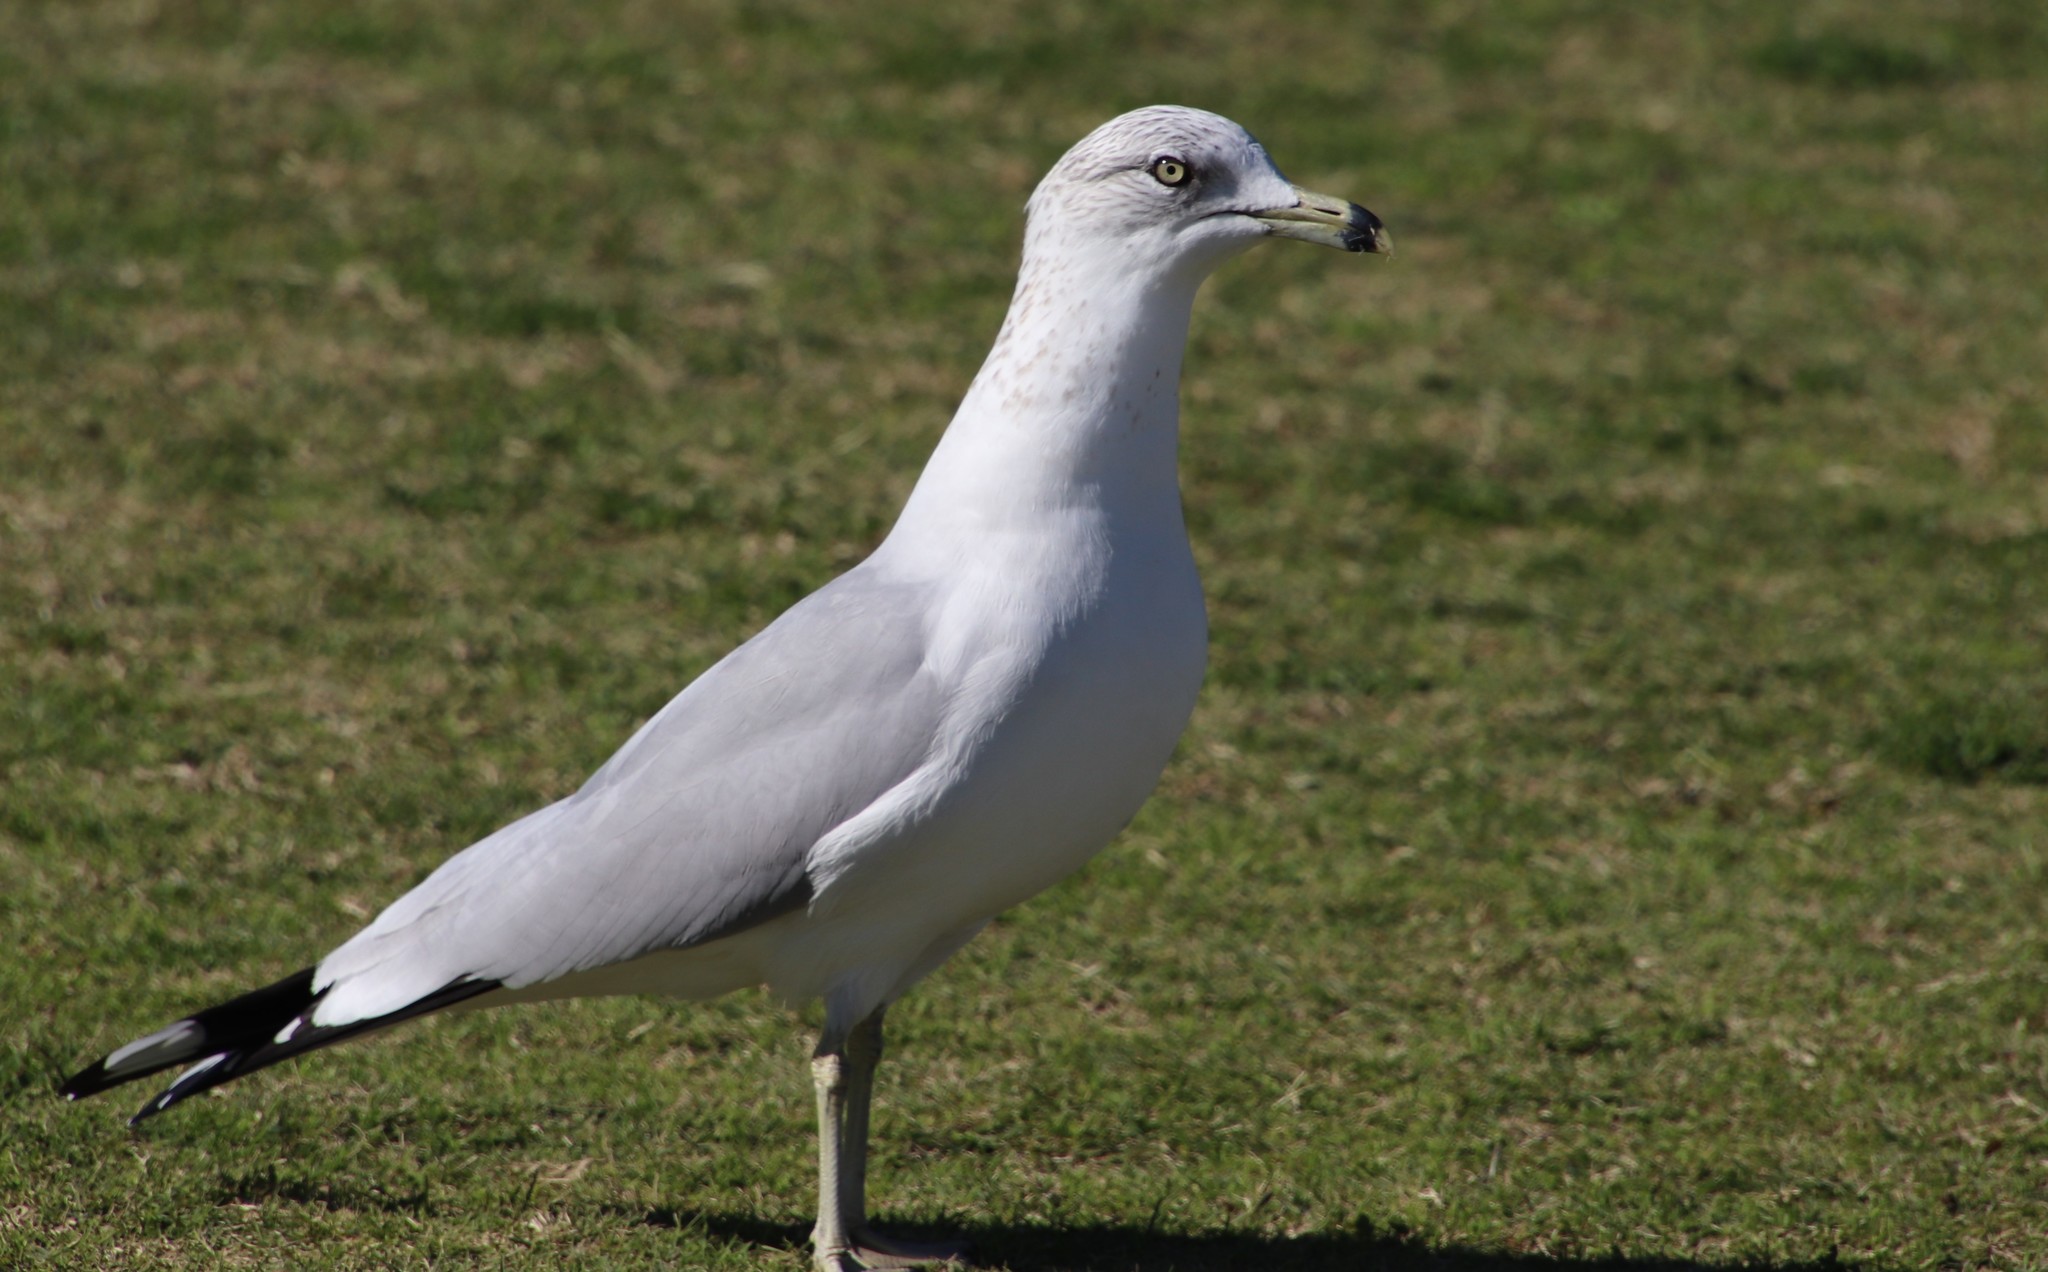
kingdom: Animalia
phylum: Chordata
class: Aves
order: Charadriiformes
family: Laridae
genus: Larus
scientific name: Larus delawarensis
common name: Ring-billed gull
